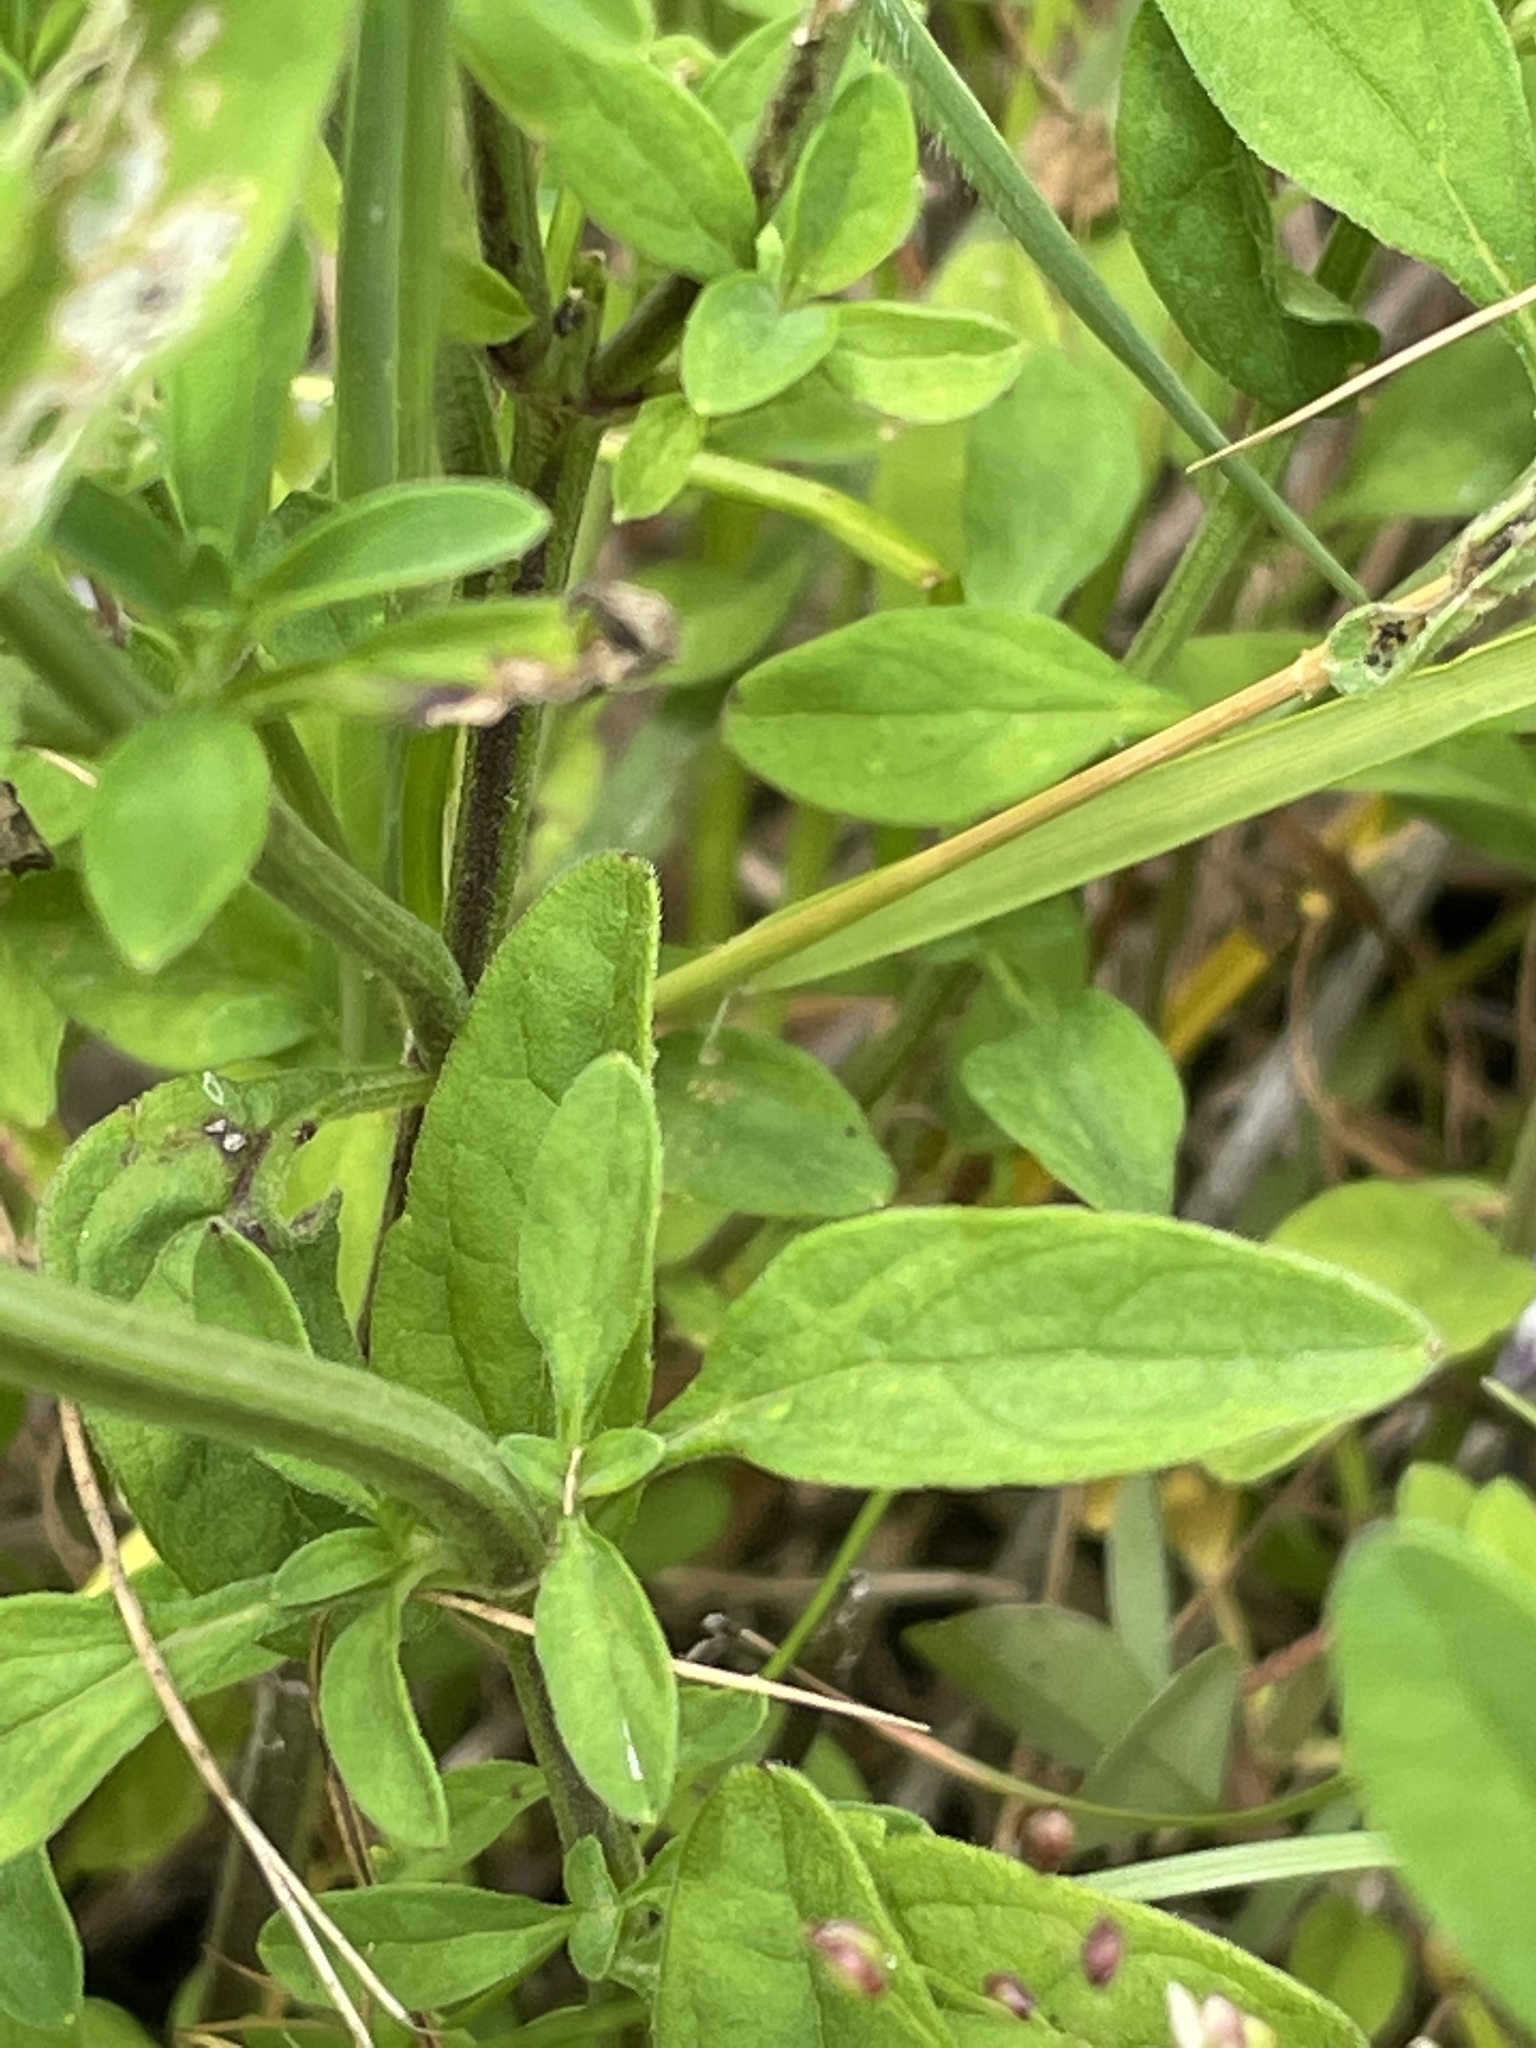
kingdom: Plantae
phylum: Tracheophyta
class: Magnoliopsida
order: Lamiales
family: Lamiaceae
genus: Scutellaria
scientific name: Scutellaria integrifolia
